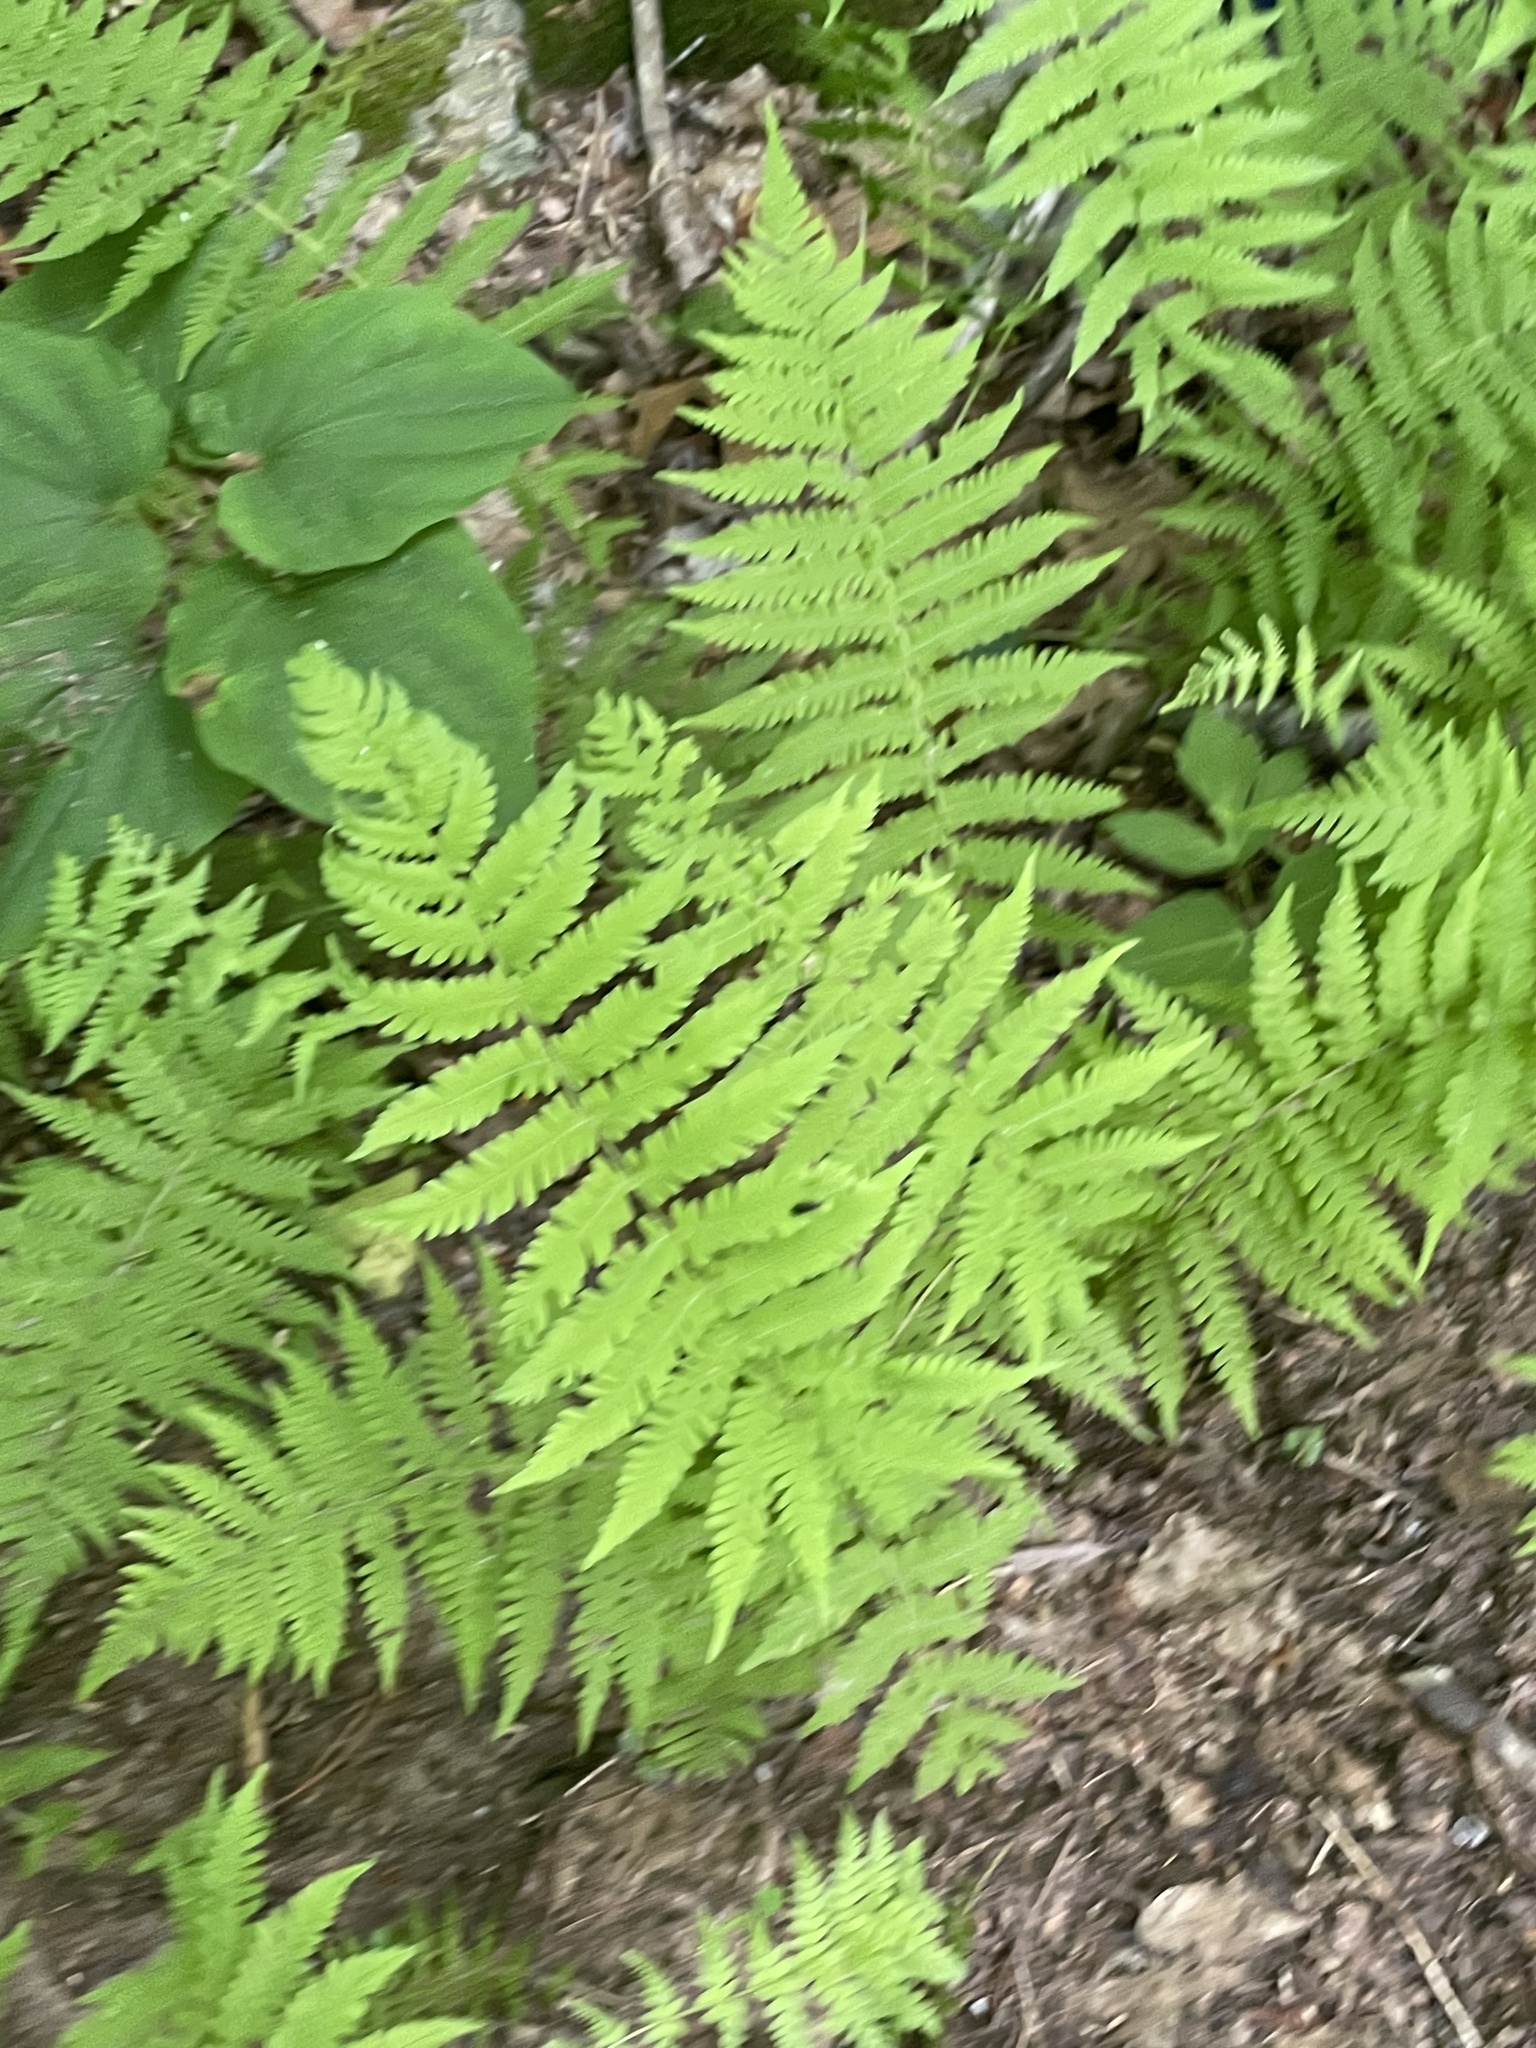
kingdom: Plantae
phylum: Tracheophyta
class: Polypodiopsida
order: Polypodiales
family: Thelypteridaceae
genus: Amauropelta
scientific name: Amauropelta noveboracensis
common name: New york fern
